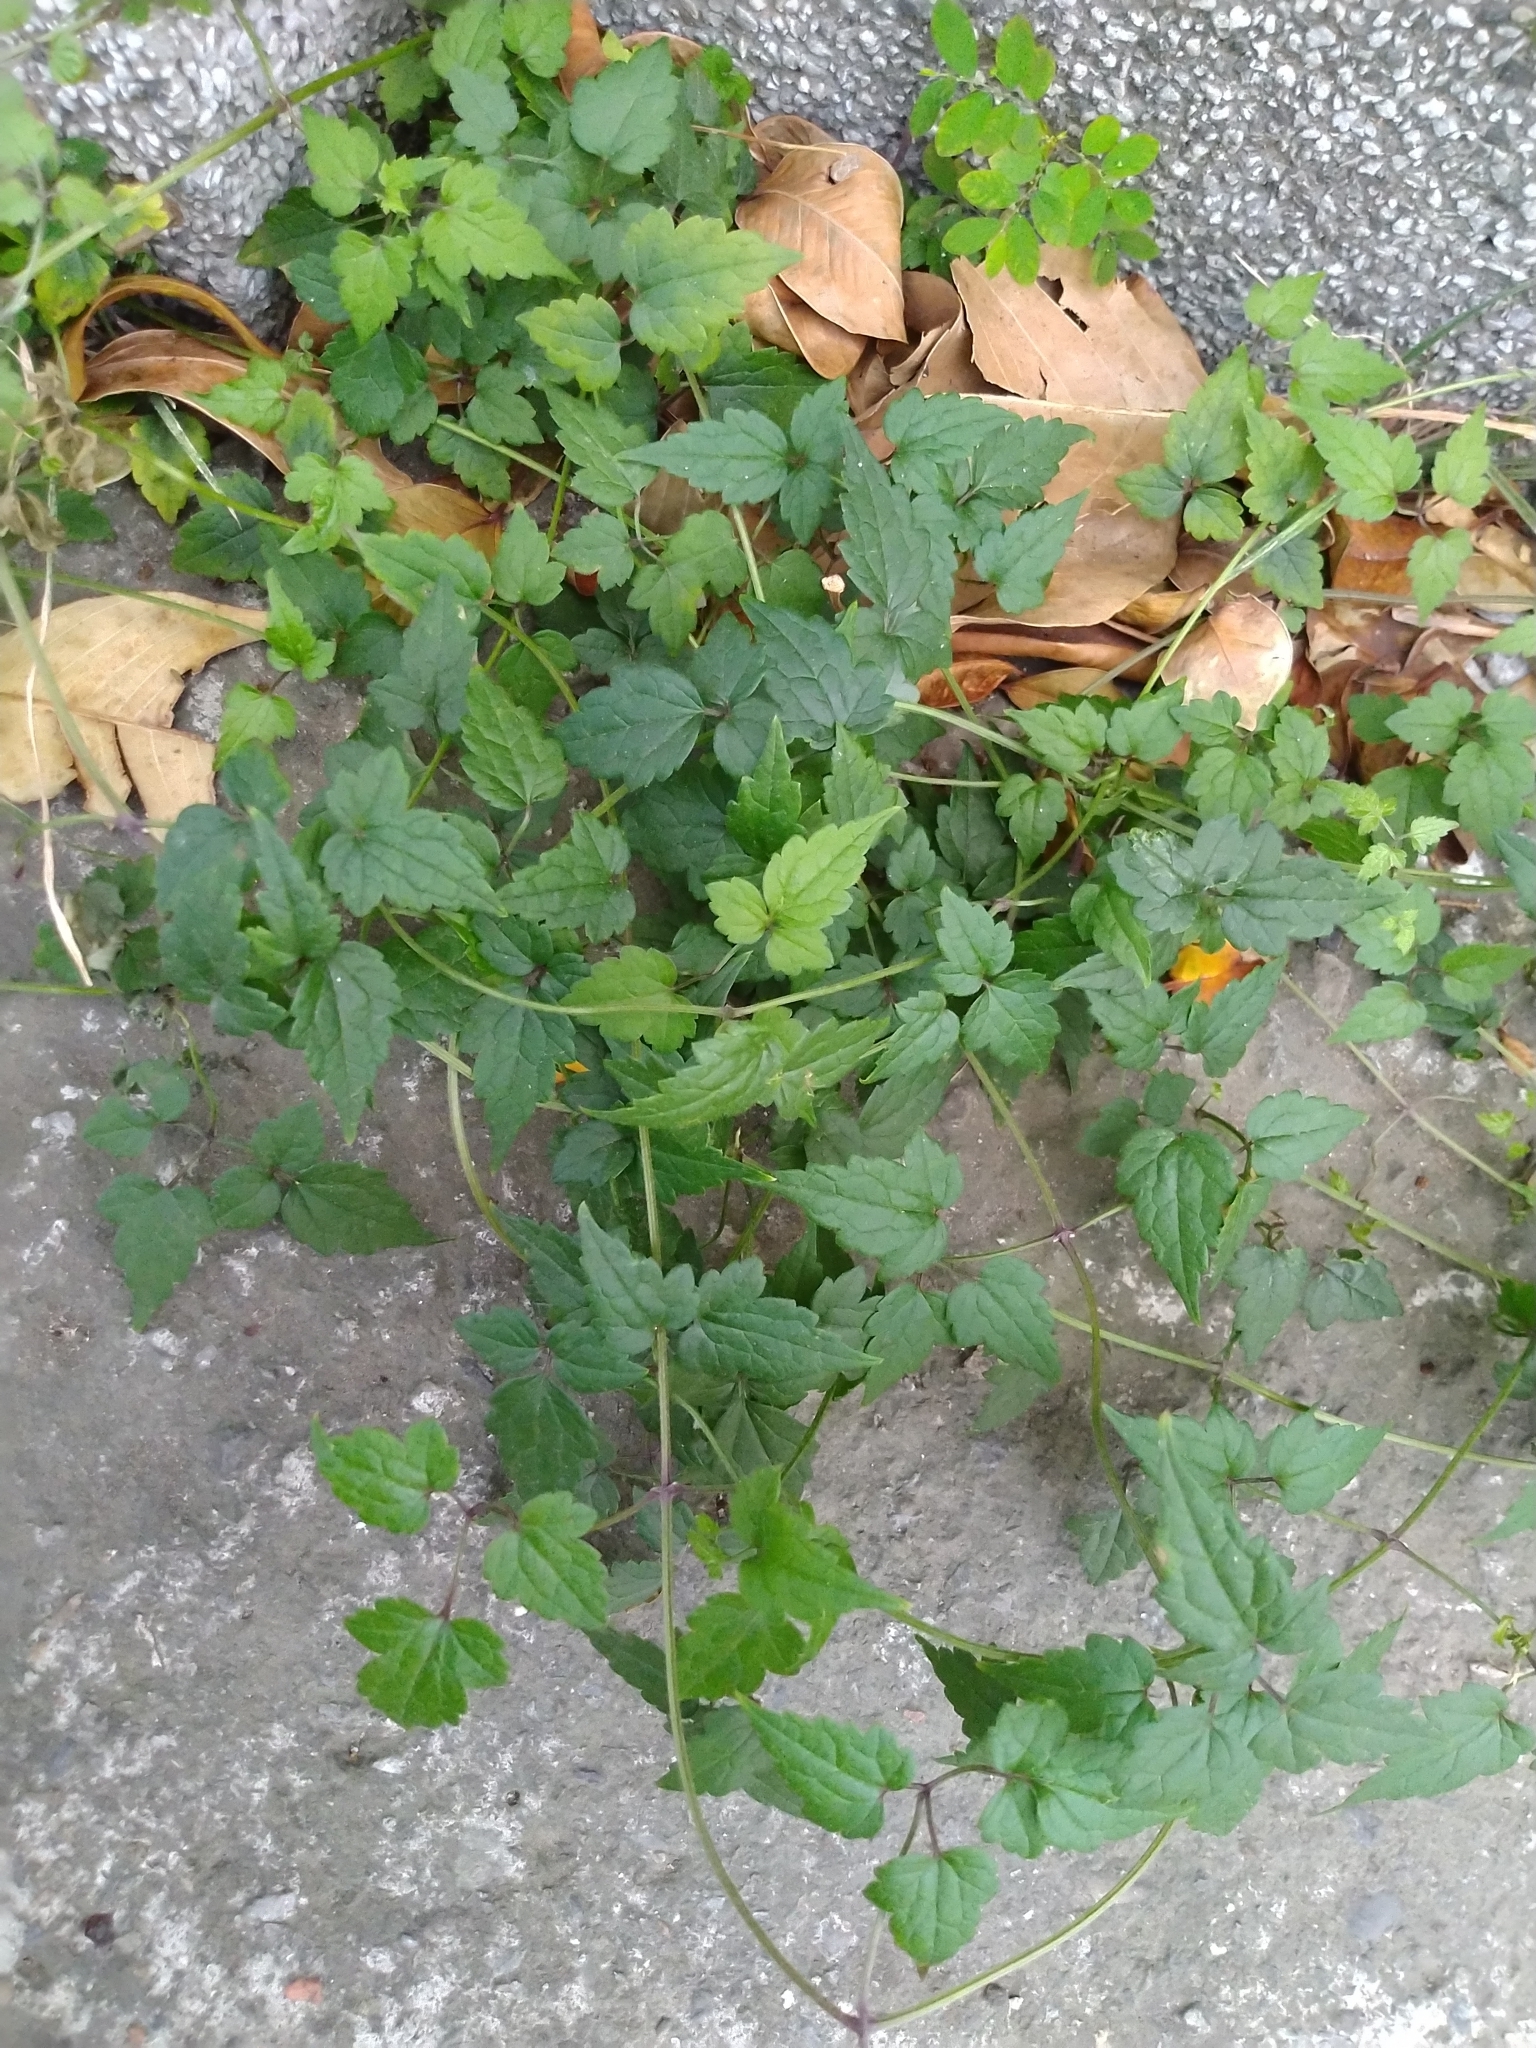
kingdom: Plantae
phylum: Tracheophyta
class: Magnoliopsida
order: Ranunculales
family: Ranunculaceae
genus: Clematis
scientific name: Clematis grata
